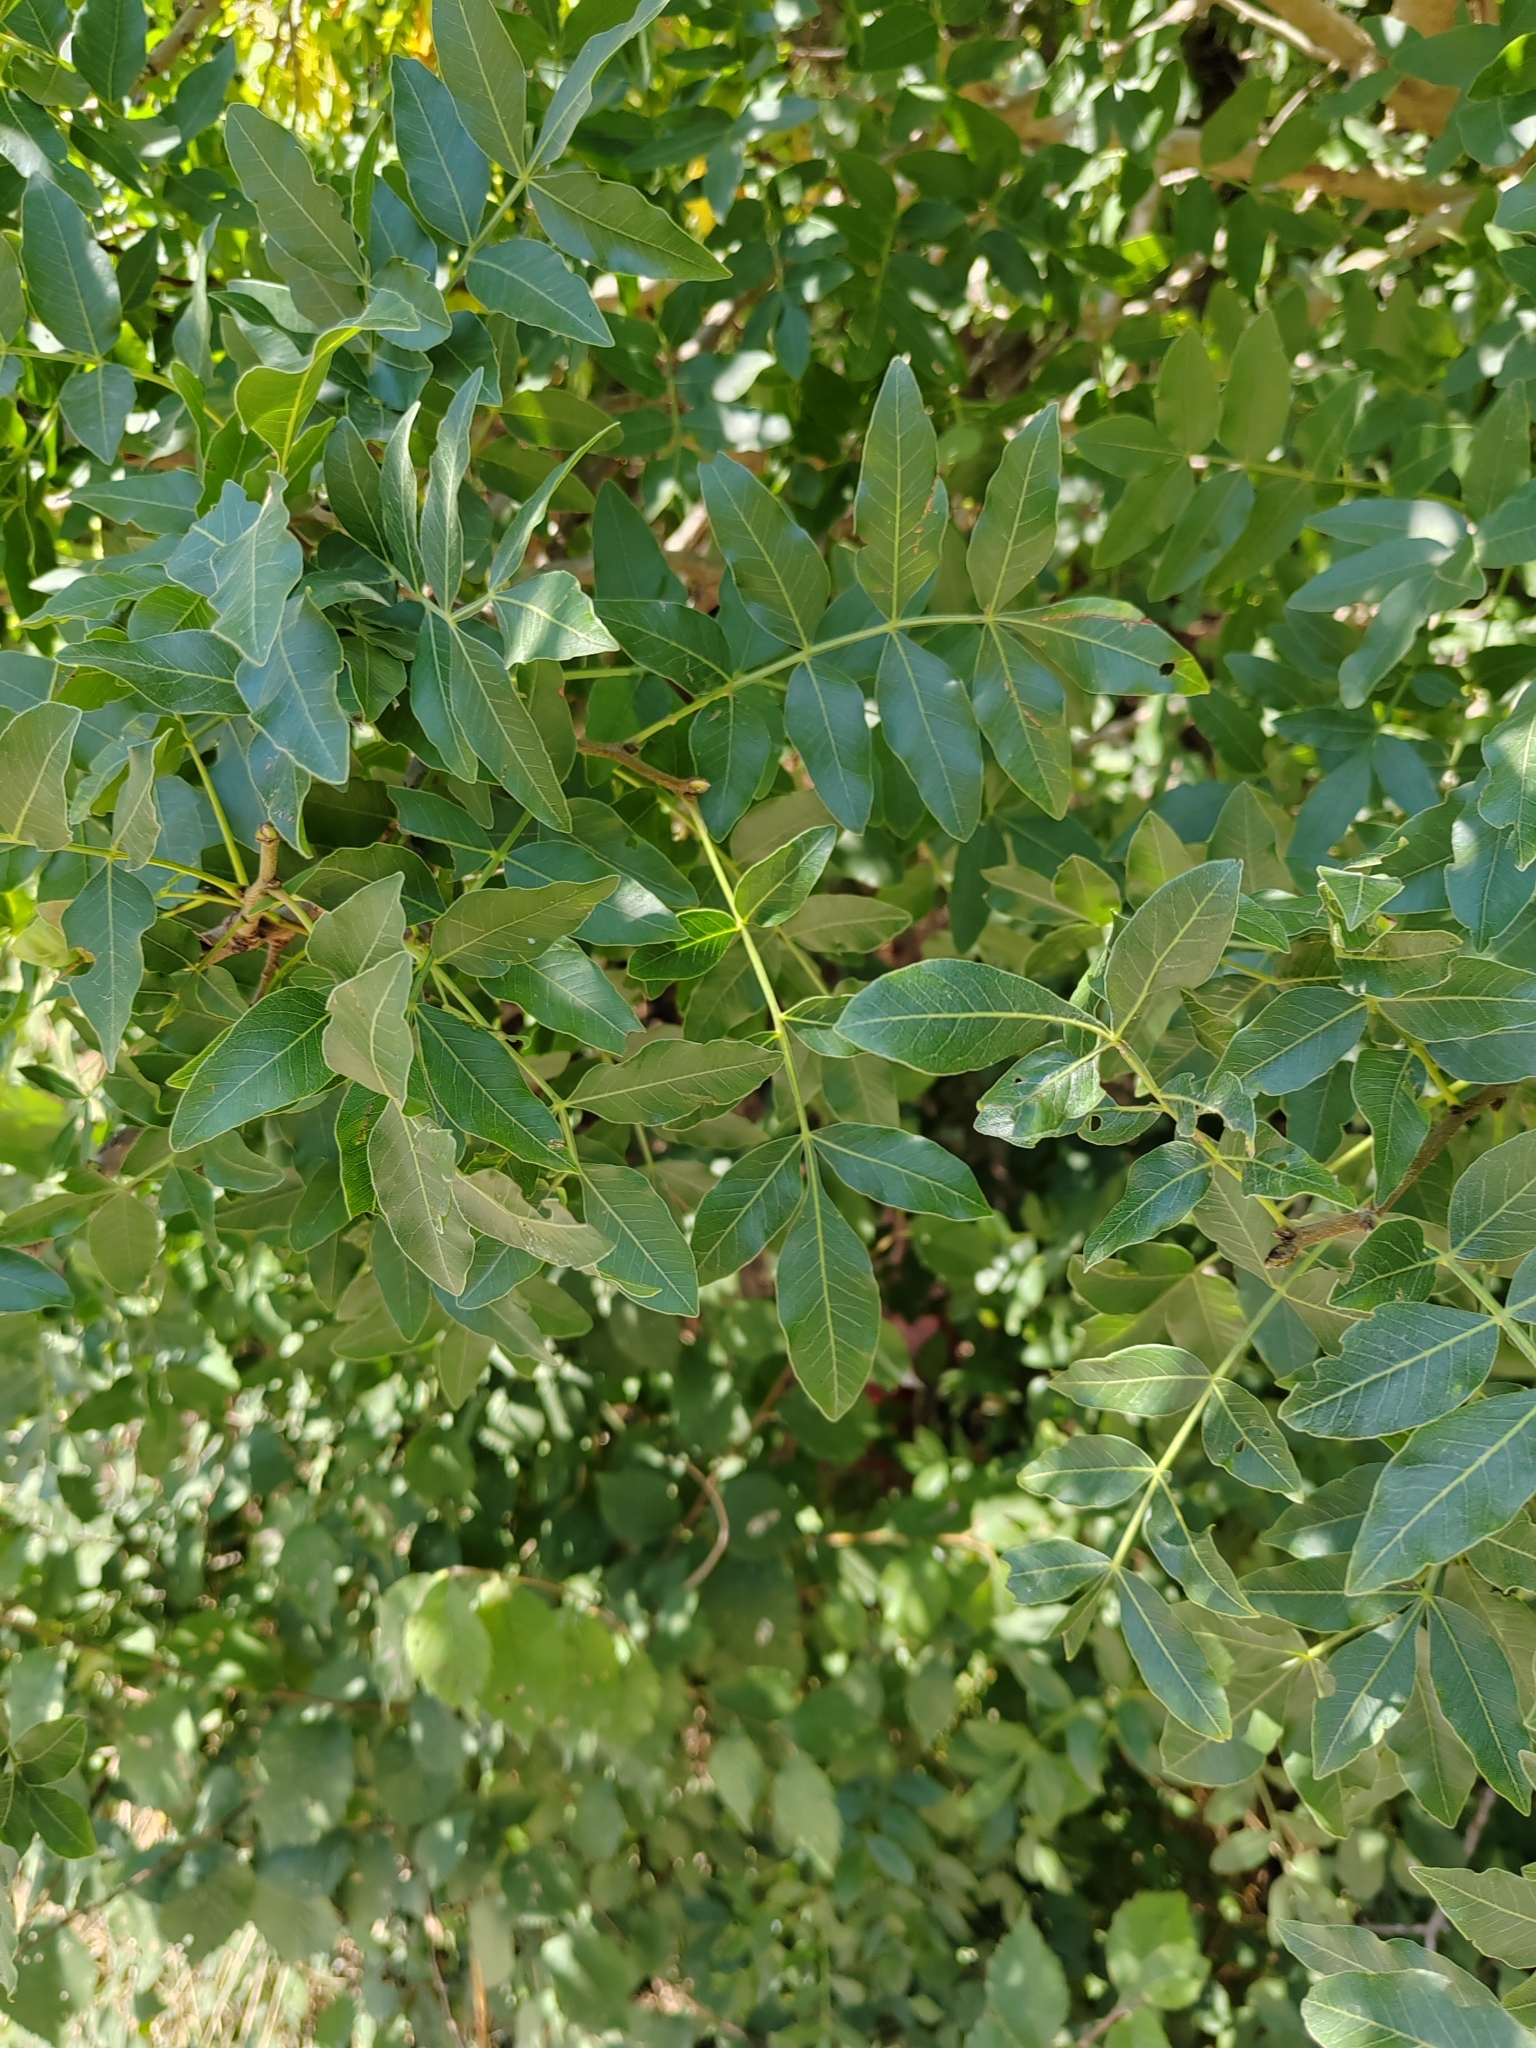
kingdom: Plantae
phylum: Tracheophyta
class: Magnoliopsida
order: Sapindales
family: Anacardiaceae
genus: Pistacia
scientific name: Pistacia atlantica
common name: Mt. atlas mastic tree
